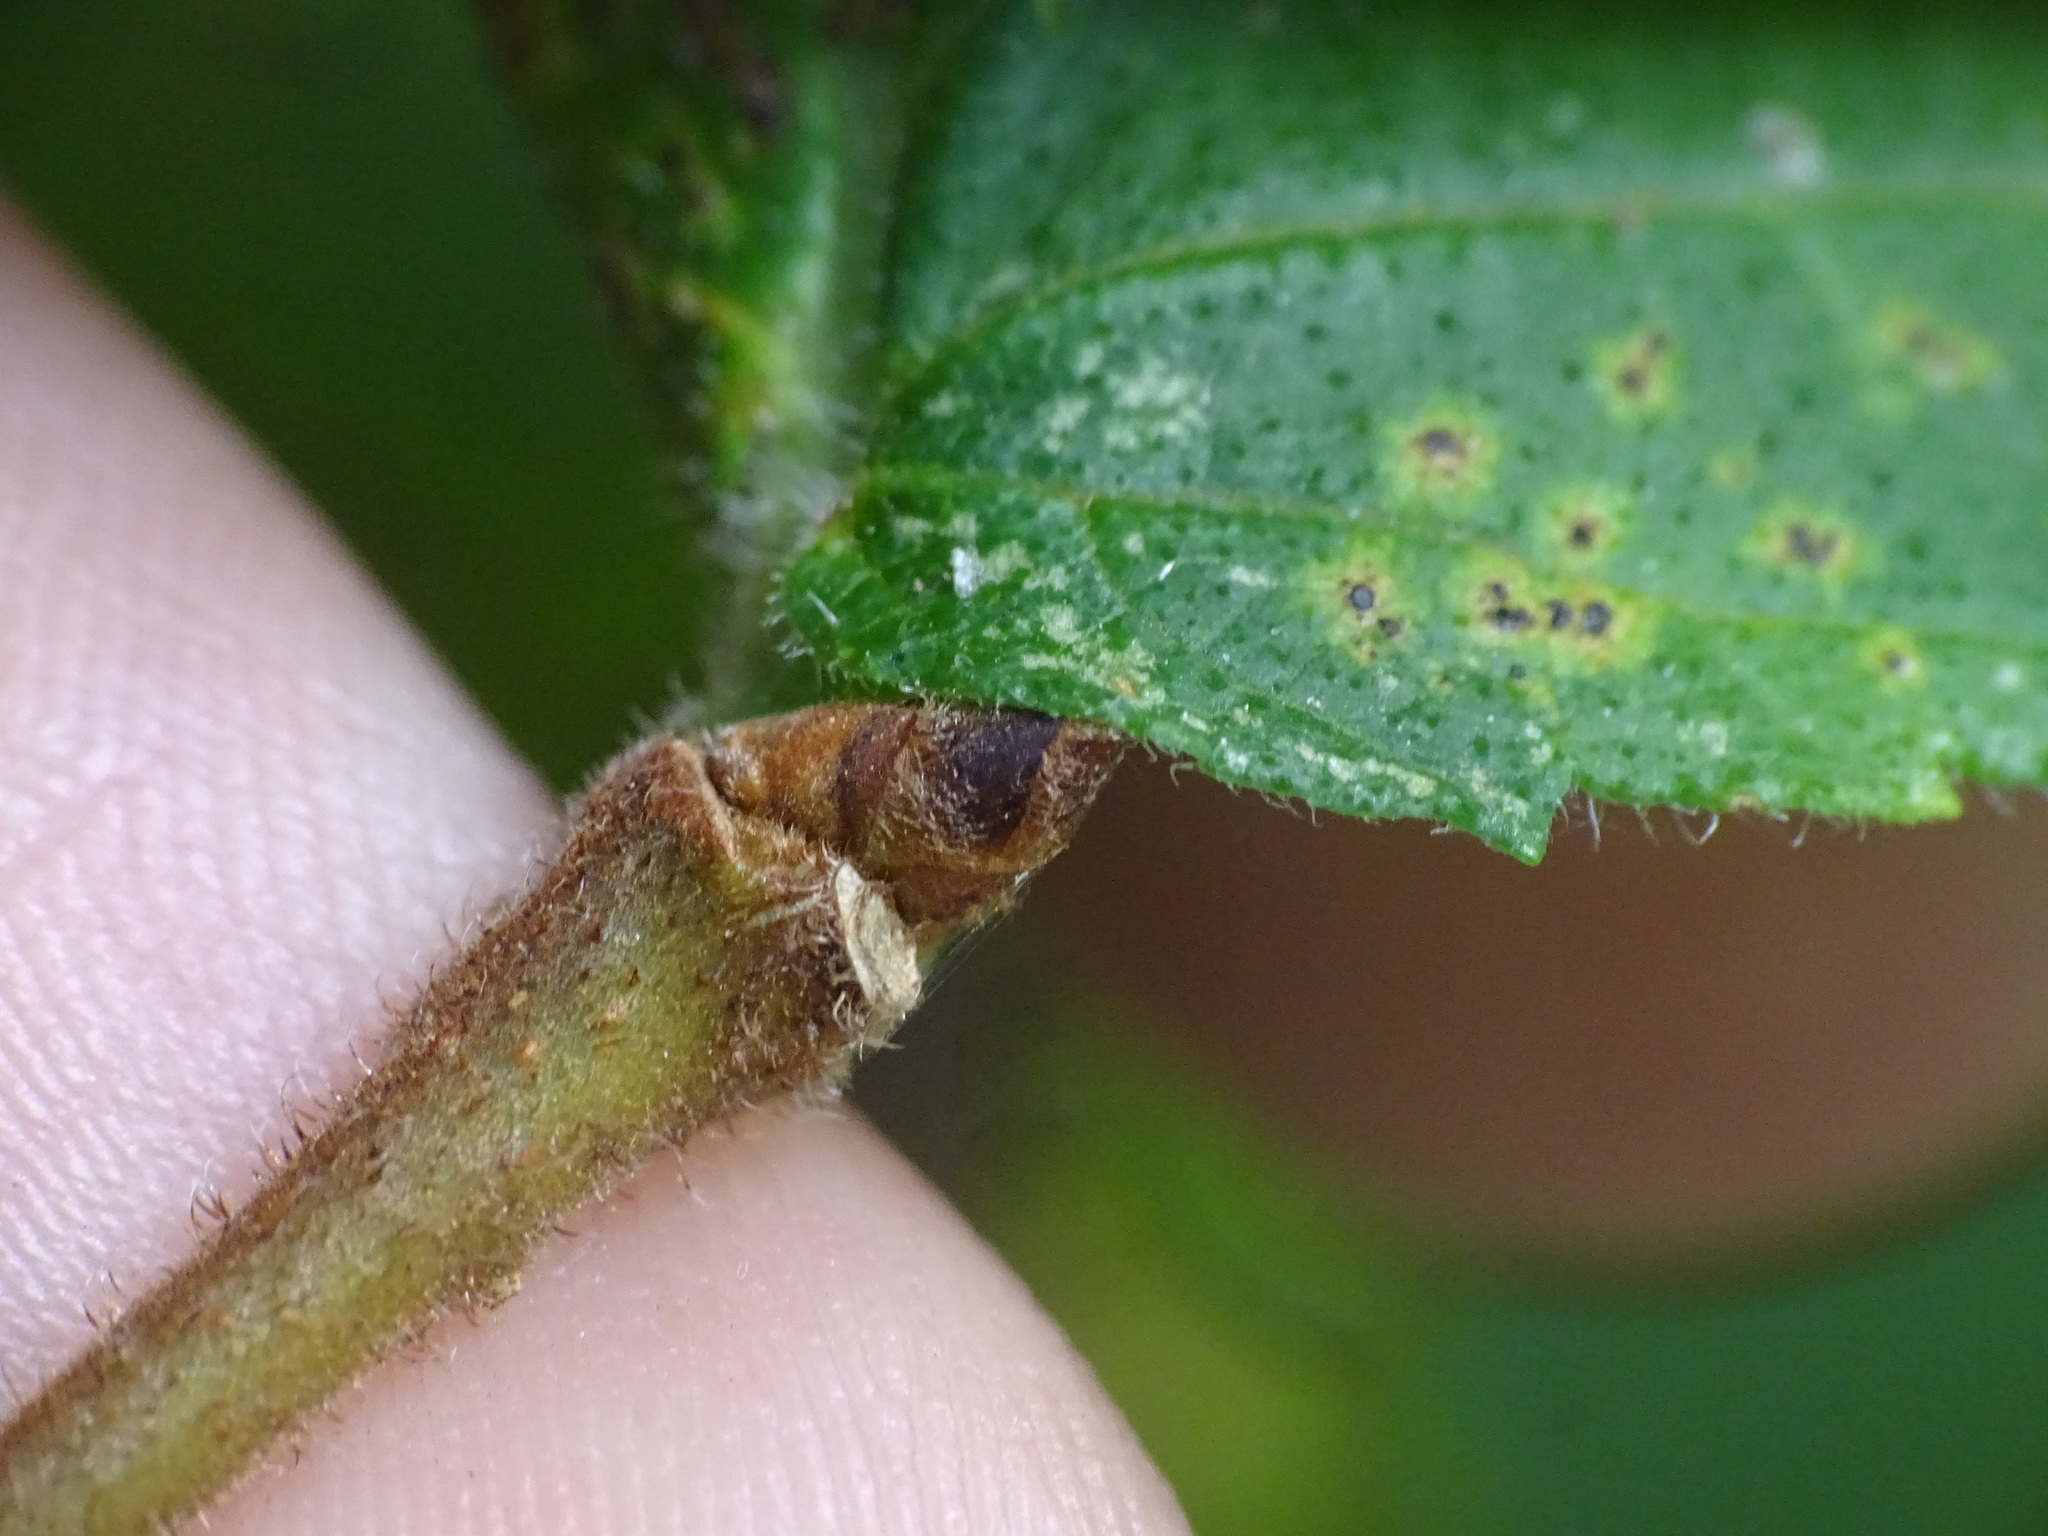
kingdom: Plantae
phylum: Tracheophyta
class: Magnoliopsida
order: Rosales
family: Ulmaceae
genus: Ulmus
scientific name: Ulmus americana
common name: American elm
